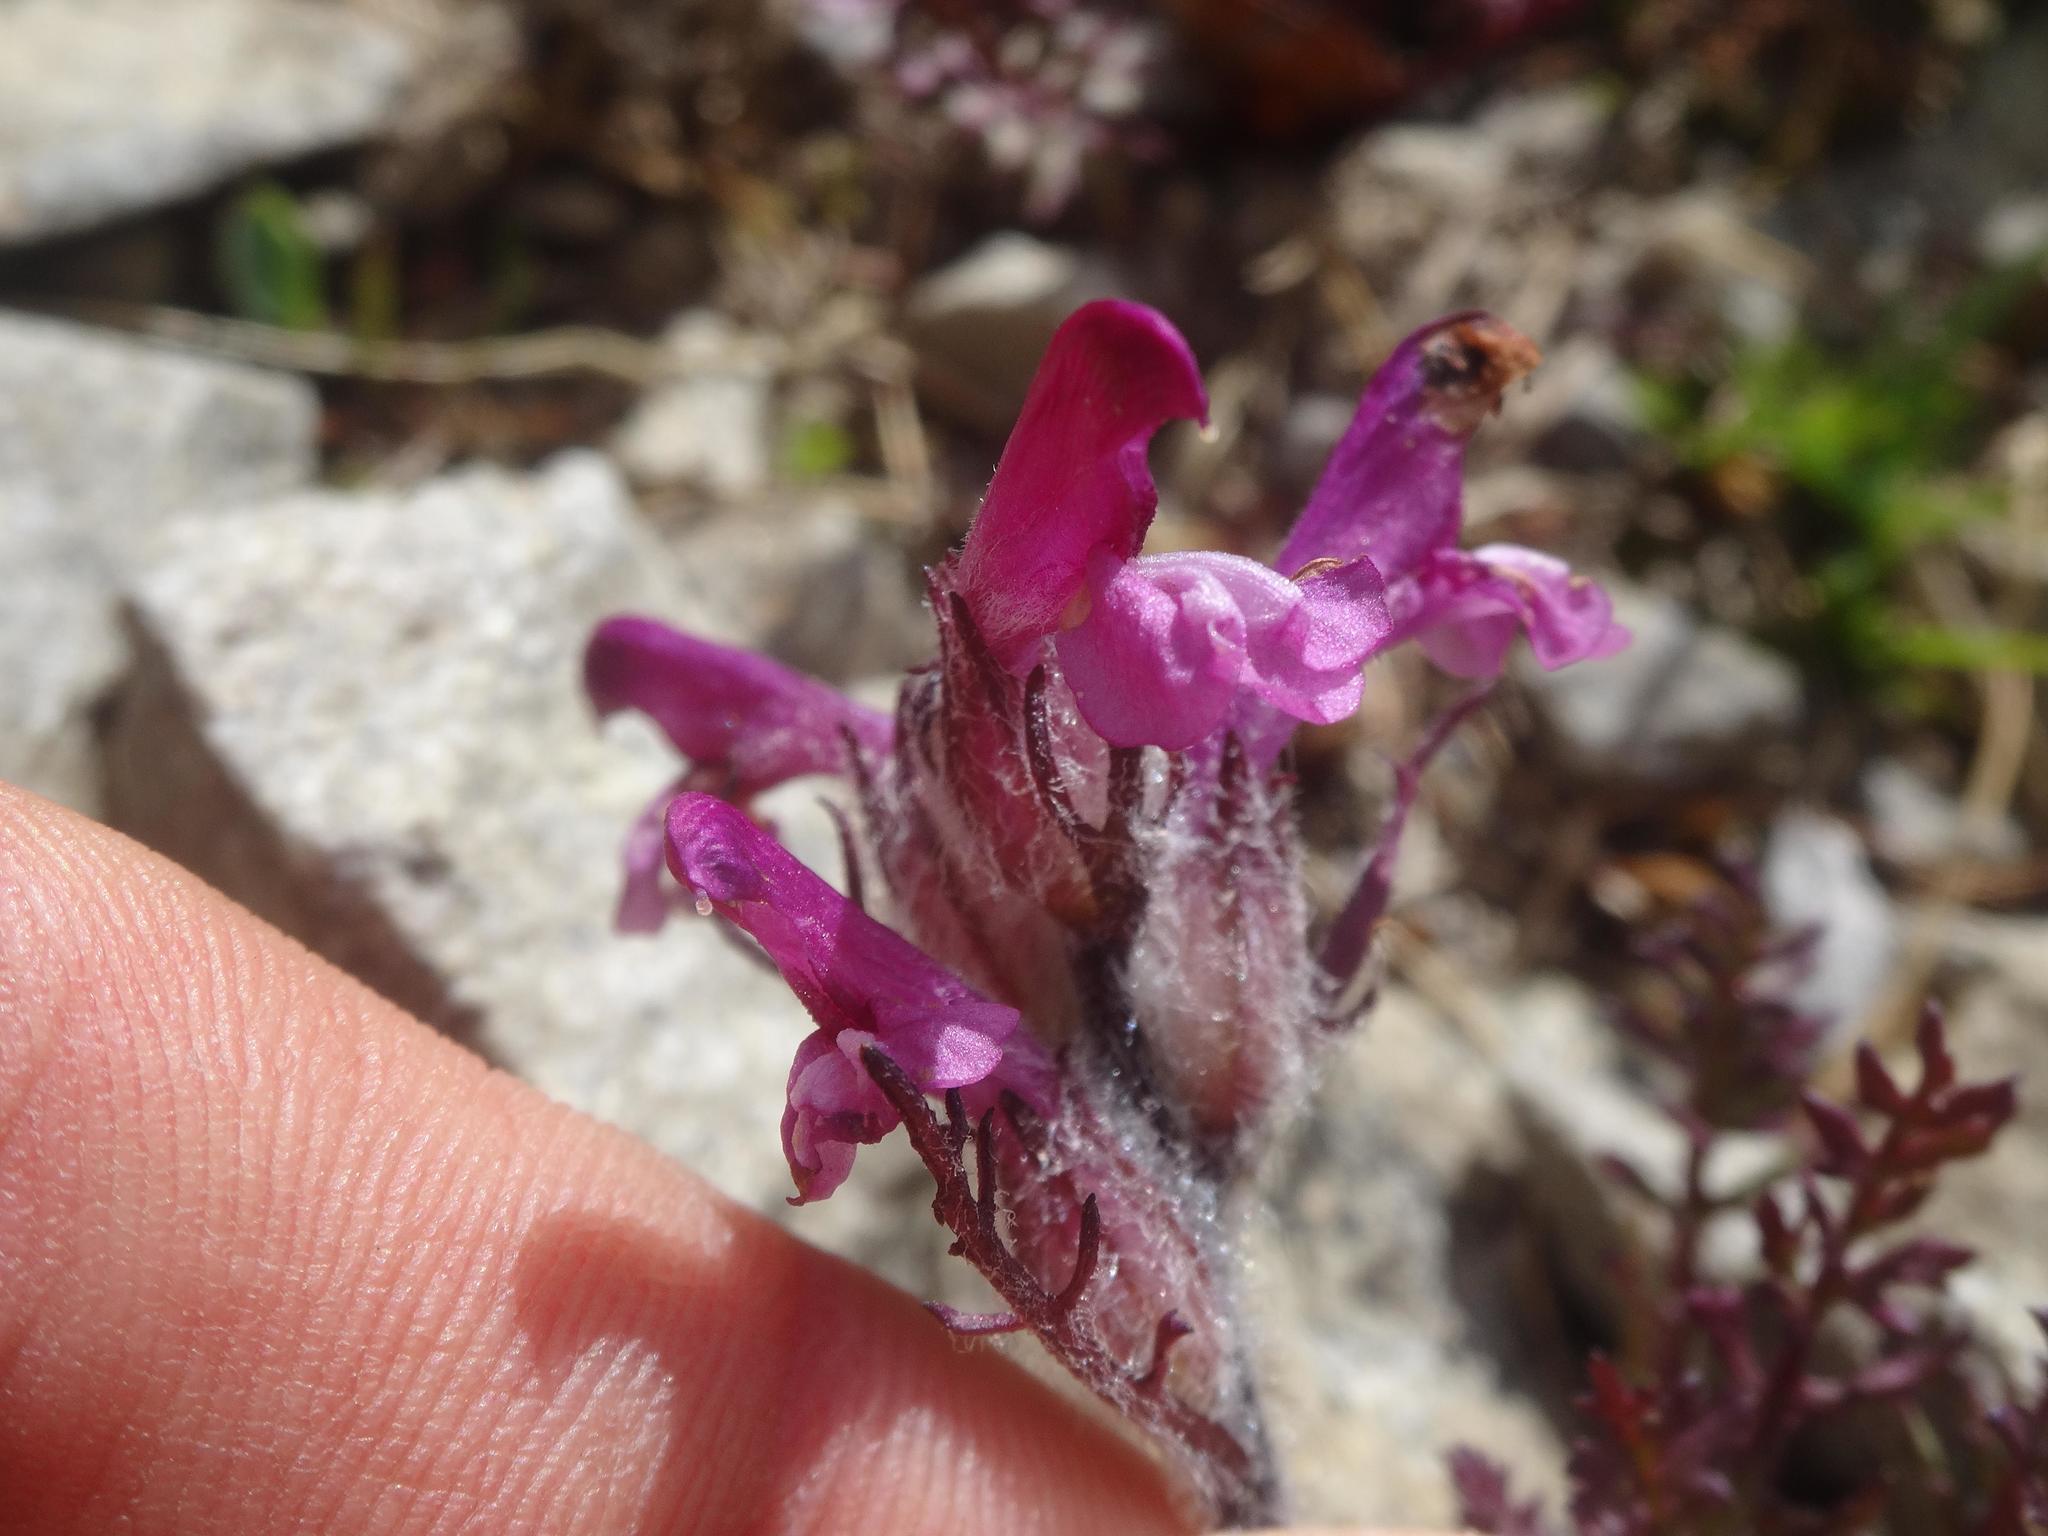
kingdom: Plantae
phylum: Tracheophyta
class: Magnoliopsida
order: Lamiales
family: Orobanchaceae
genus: Pedicularis
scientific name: Pedicularis rosea
